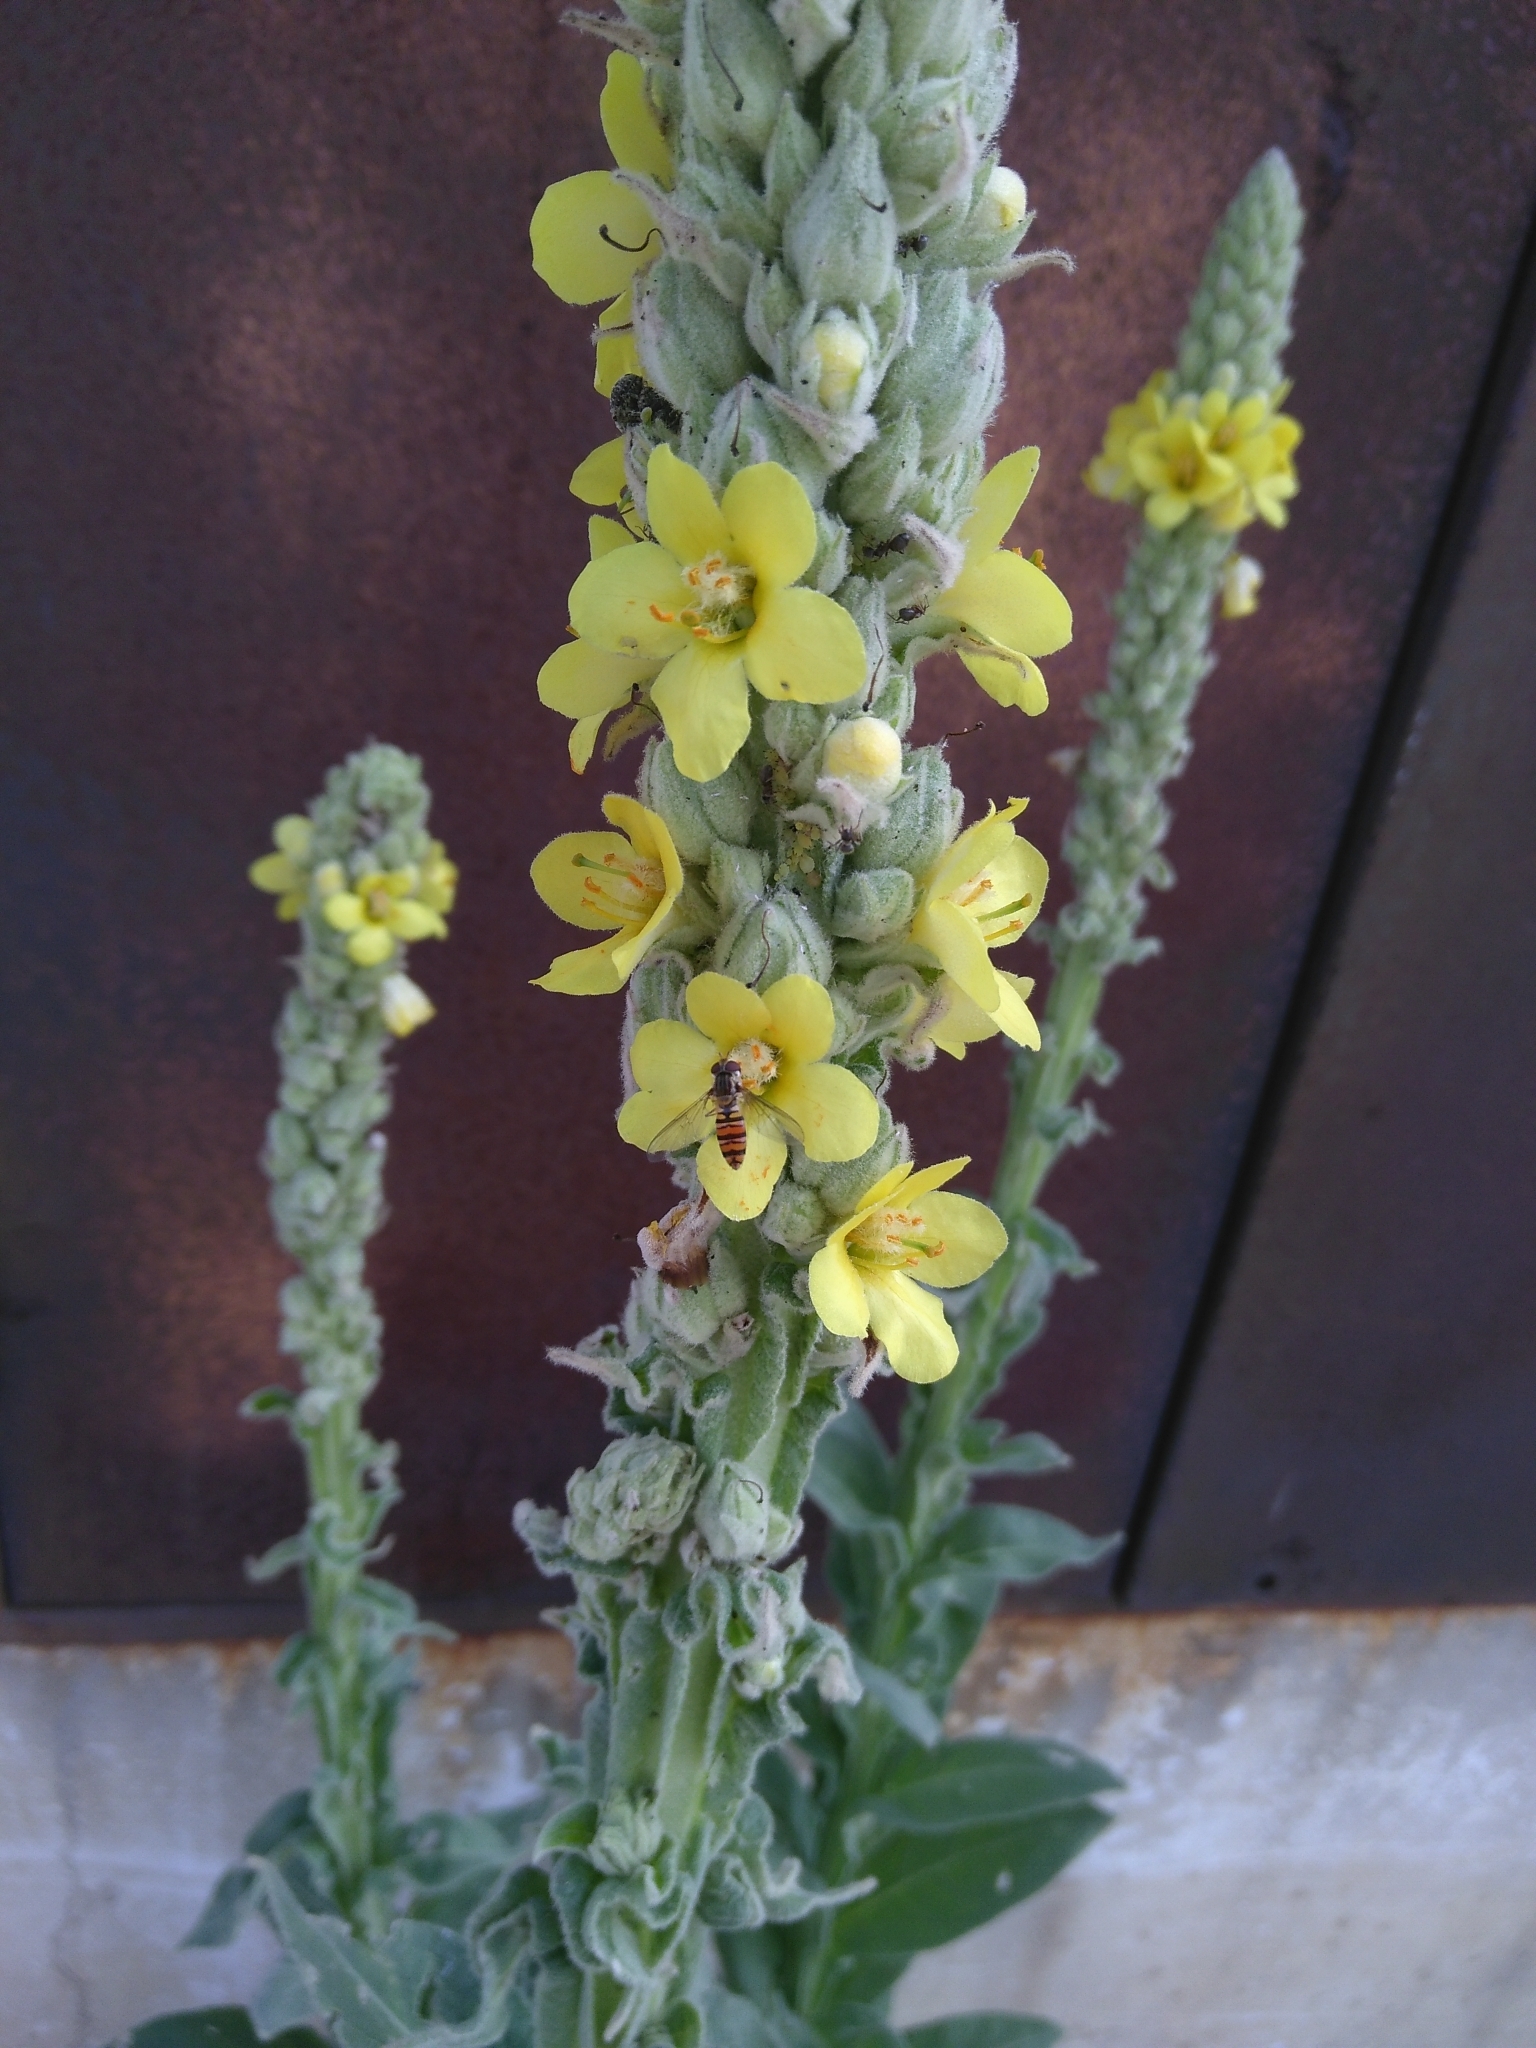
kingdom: Animalia
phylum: Arthropoda
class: Insecta
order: Diptera
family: Syrphidae
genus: Episyrphus
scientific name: Episyrphus balteatus
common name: Marmalade hoverfly
